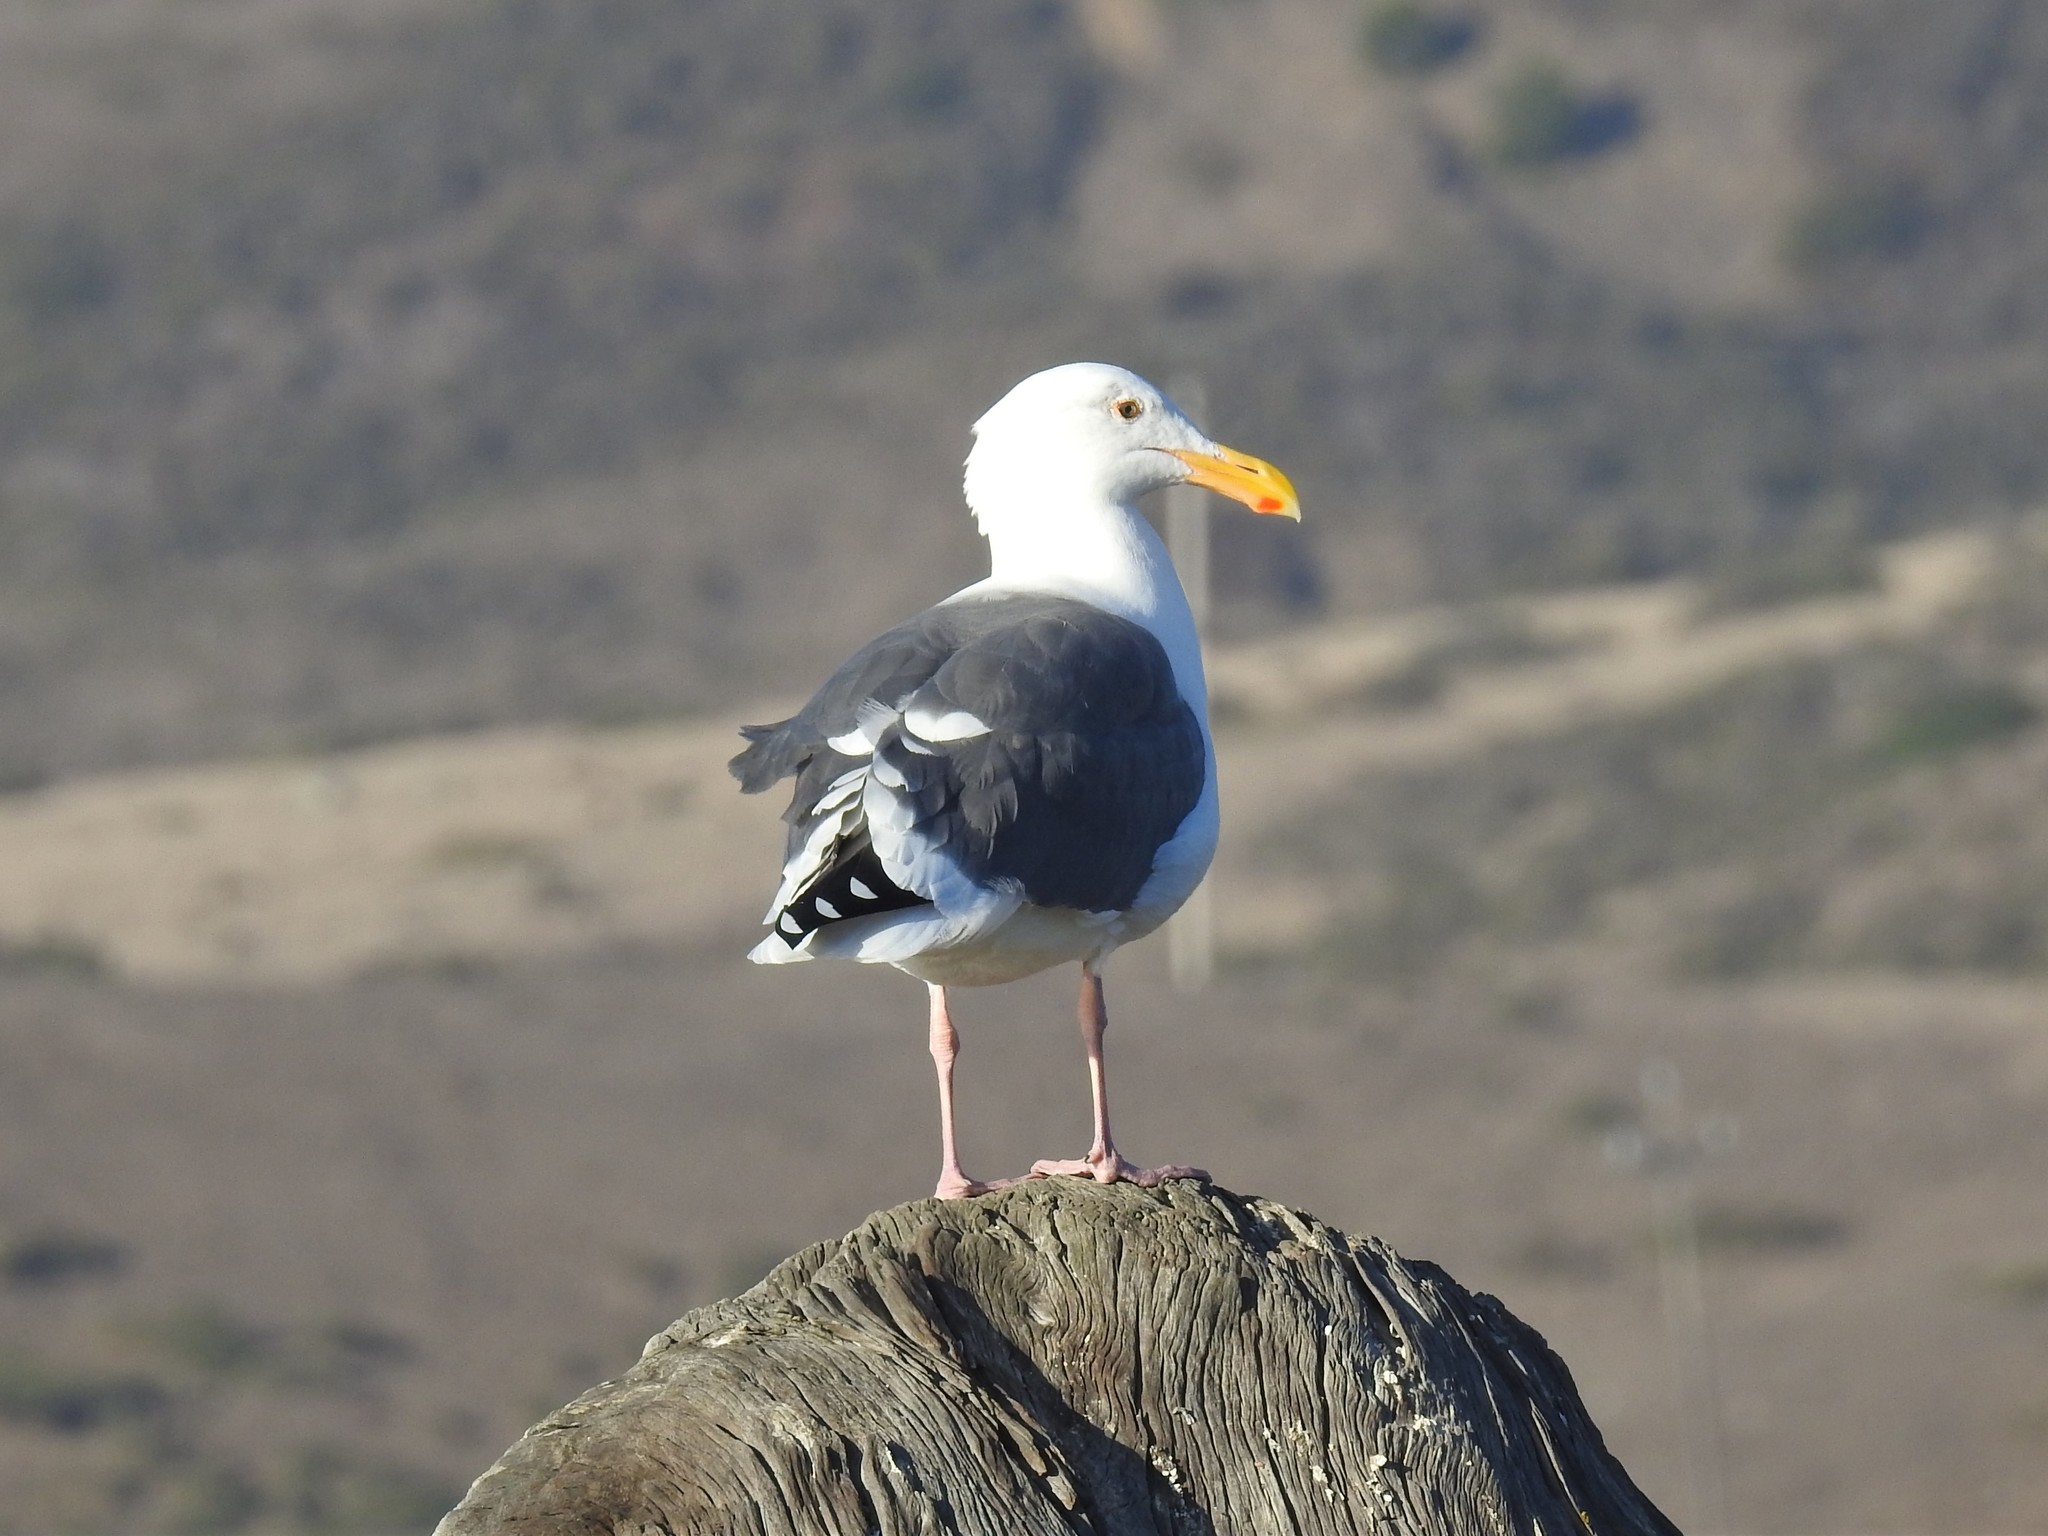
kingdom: Animalia
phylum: Chordata
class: Aves
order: Charadriiformes
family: Laridae
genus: Larus
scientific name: Larus occidentalis
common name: Western gull
